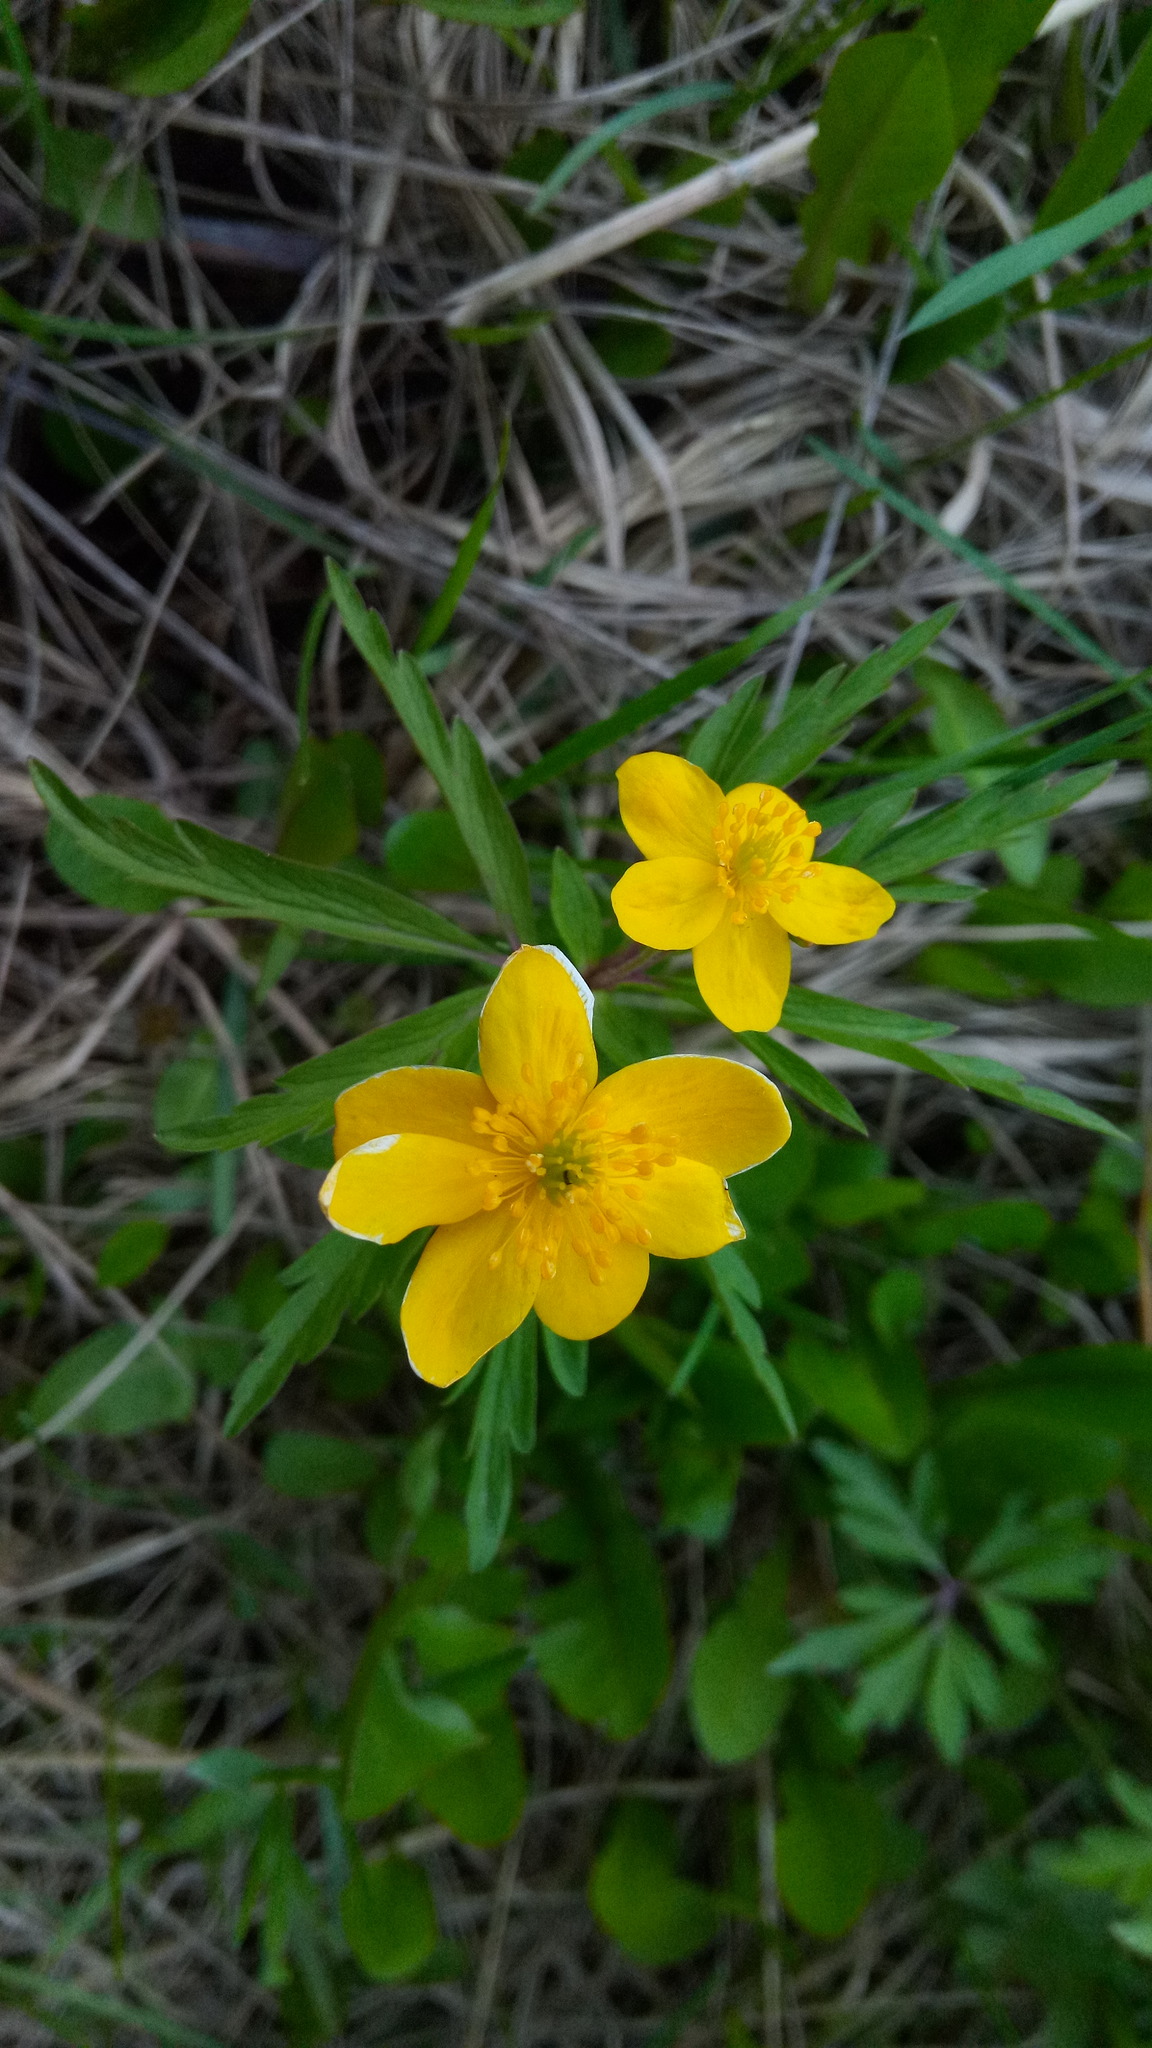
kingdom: Plantae
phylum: Tracheophyta
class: Magnoliopsida
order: Ranunculales
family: Ranunculaceae
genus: Anemone
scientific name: Anemone ranunculoides
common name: Yellow anemone
